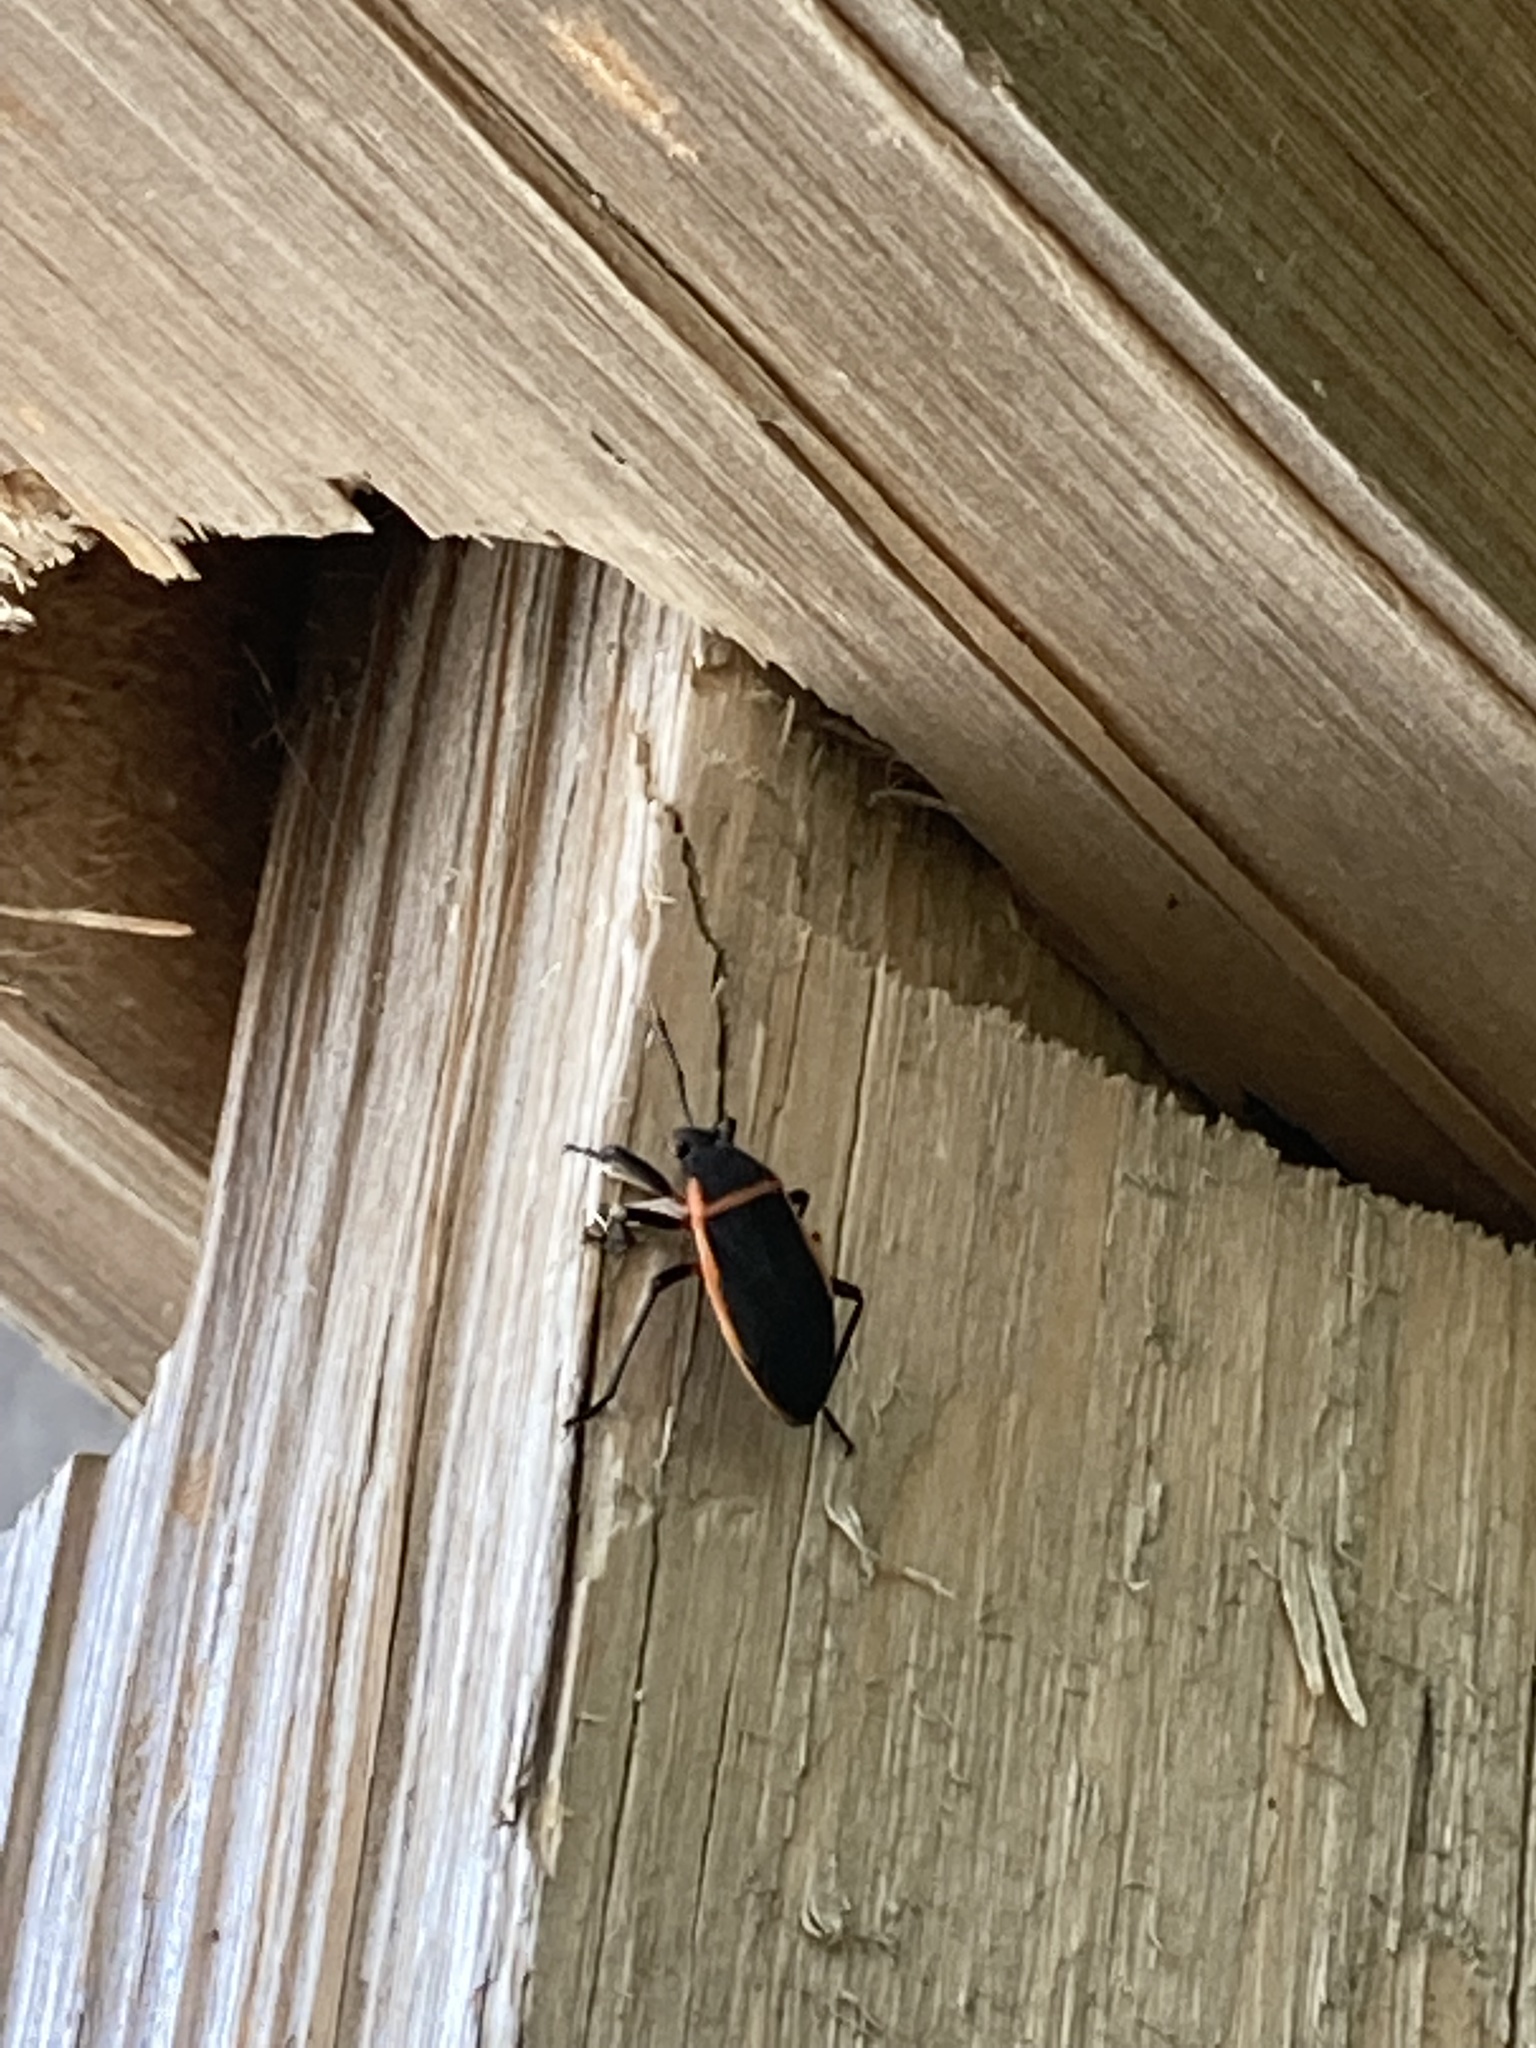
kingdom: Animalia
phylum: Arthropoda
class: Insecta
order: Hemiptera
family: Largidae
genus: Largus
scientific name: Largus californicus
